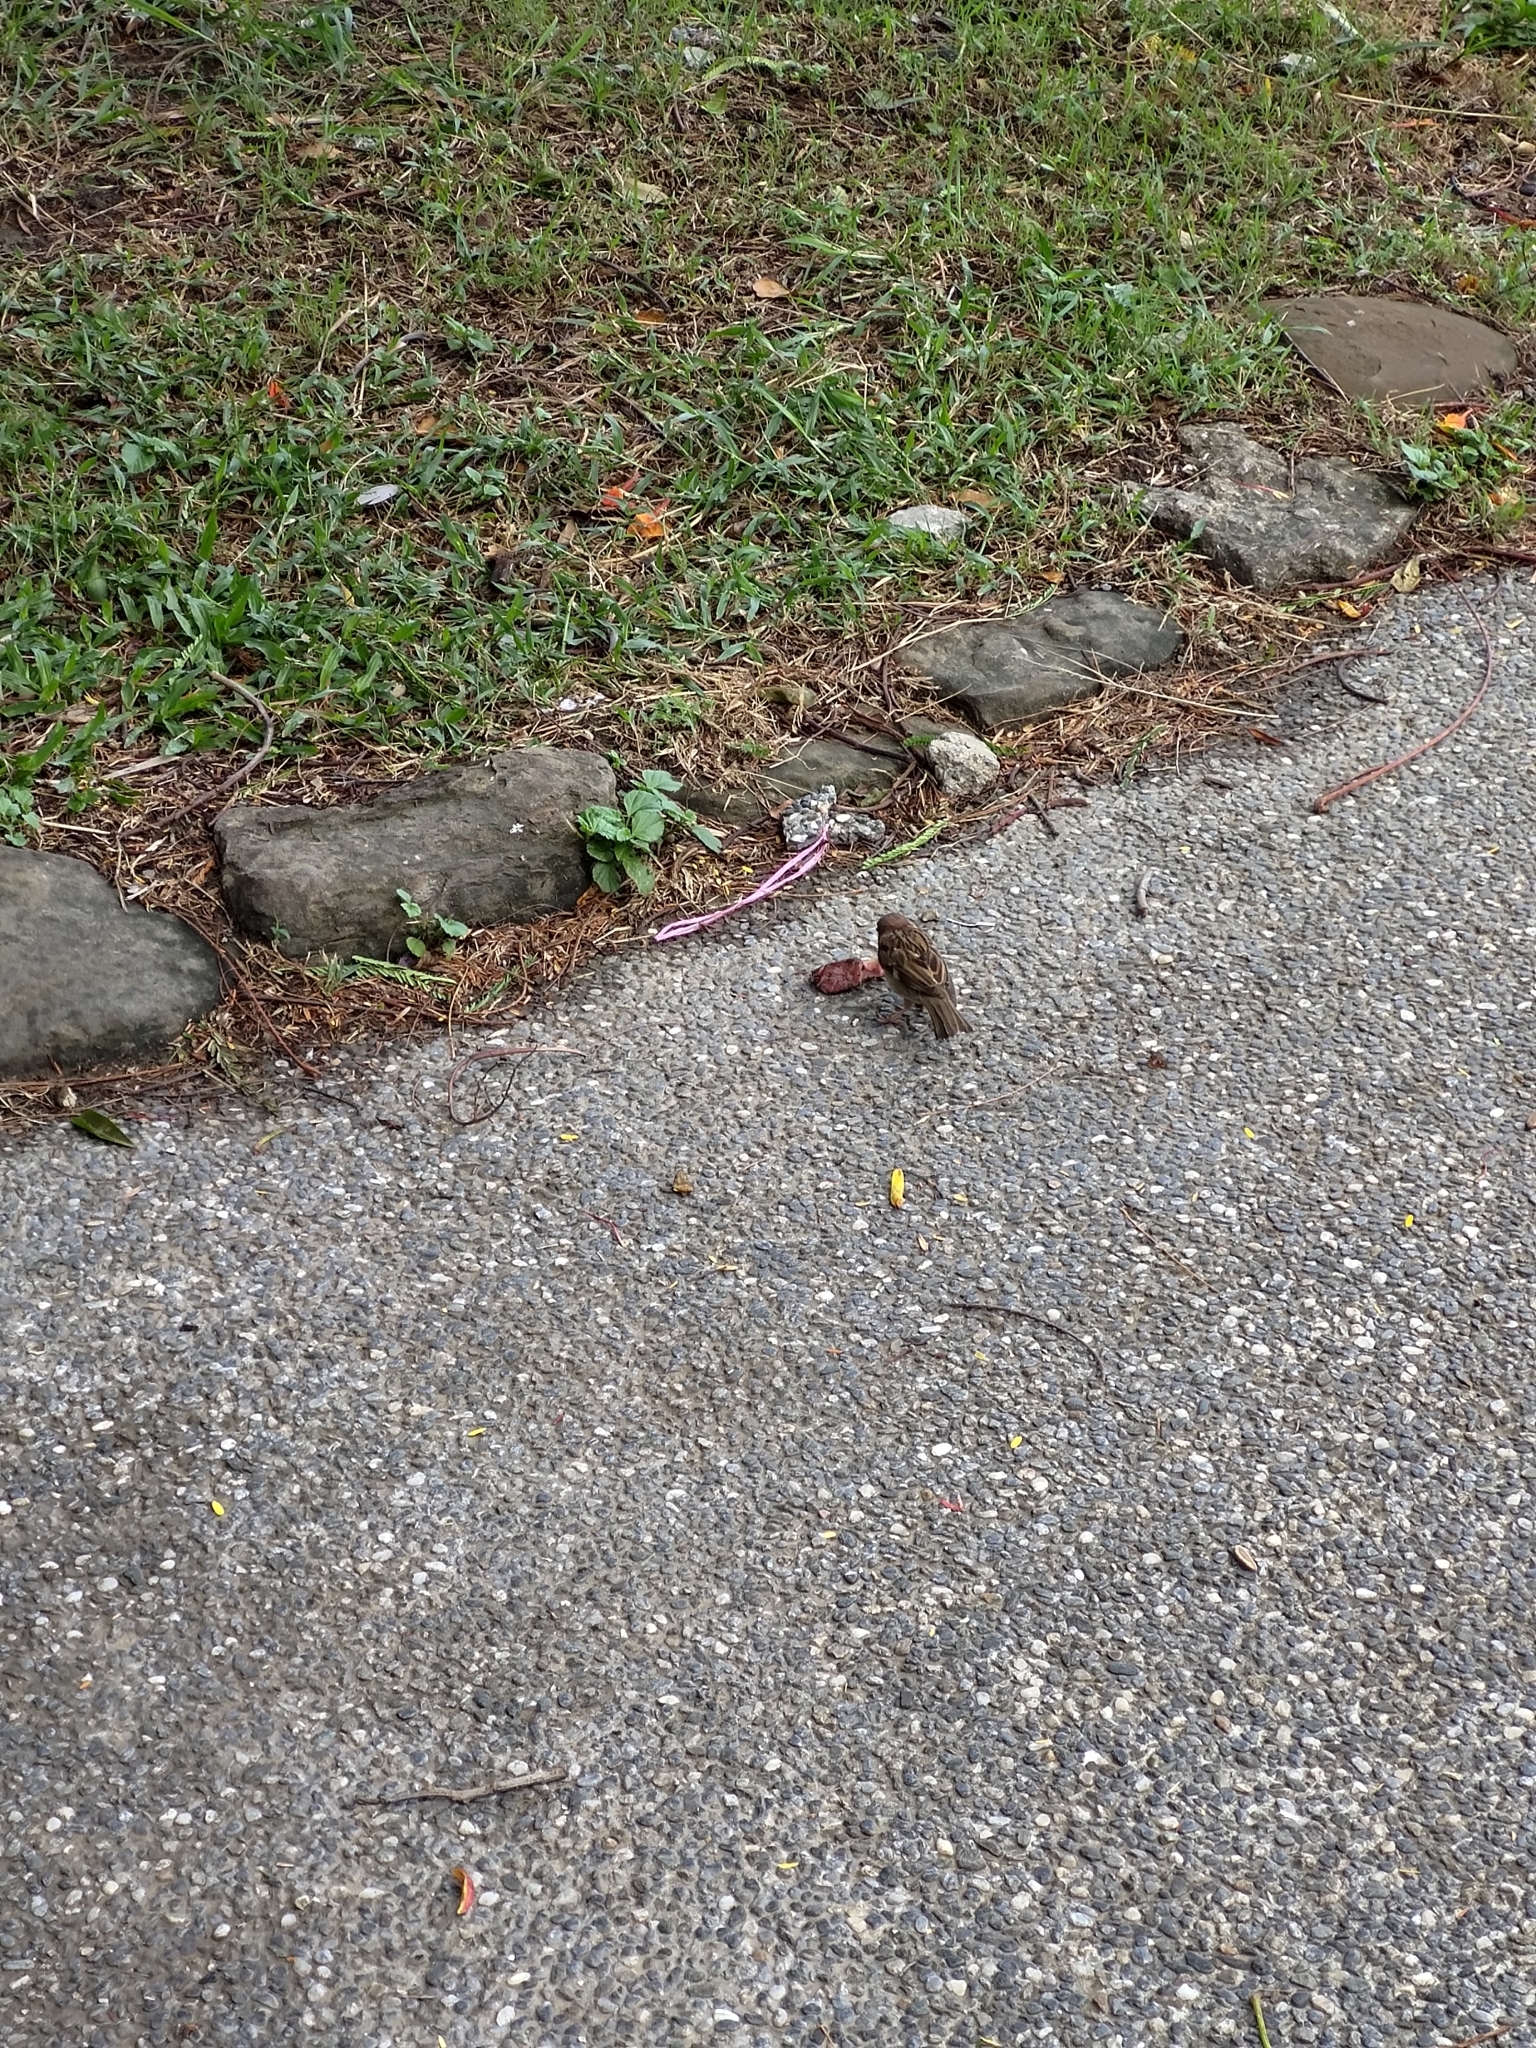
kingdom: Animalia
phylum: Chordata
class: Aves
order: Passeriformes
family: Passeridae
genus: Passer
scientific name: Passer montanus
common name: Eurasian tree sparrow
